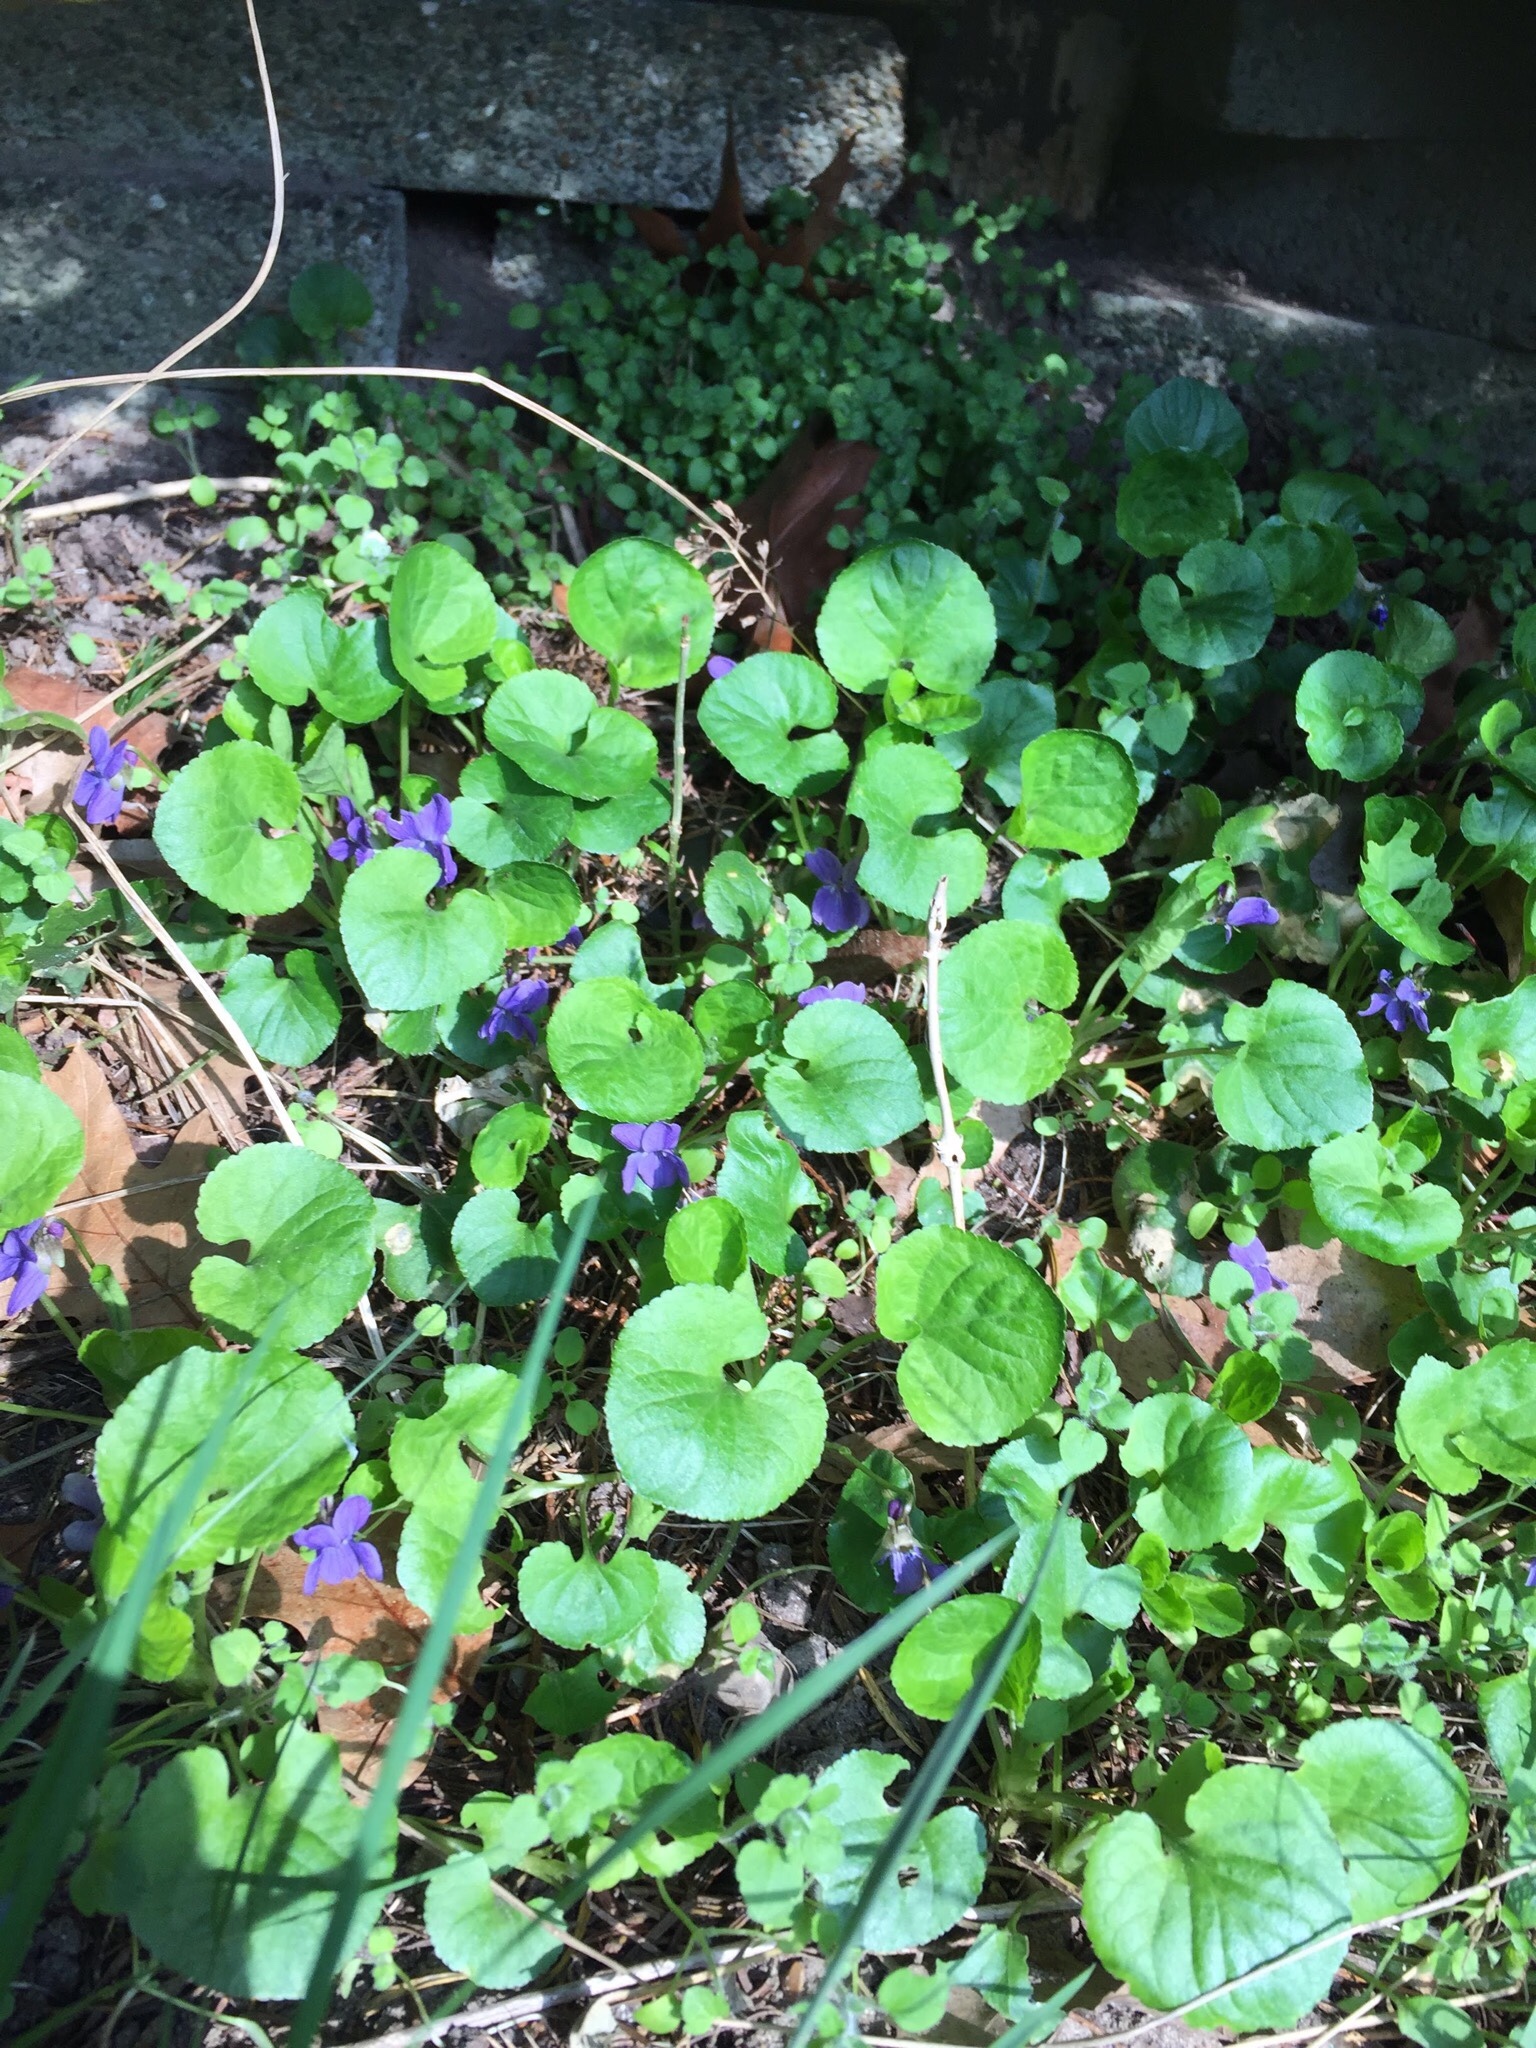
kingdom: Plantae
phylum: Tracheophyta
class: Magnoliopsida
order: Malpighiales
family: Violaceae
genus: Viola
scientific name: Viola odorata
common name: Sweet violet
